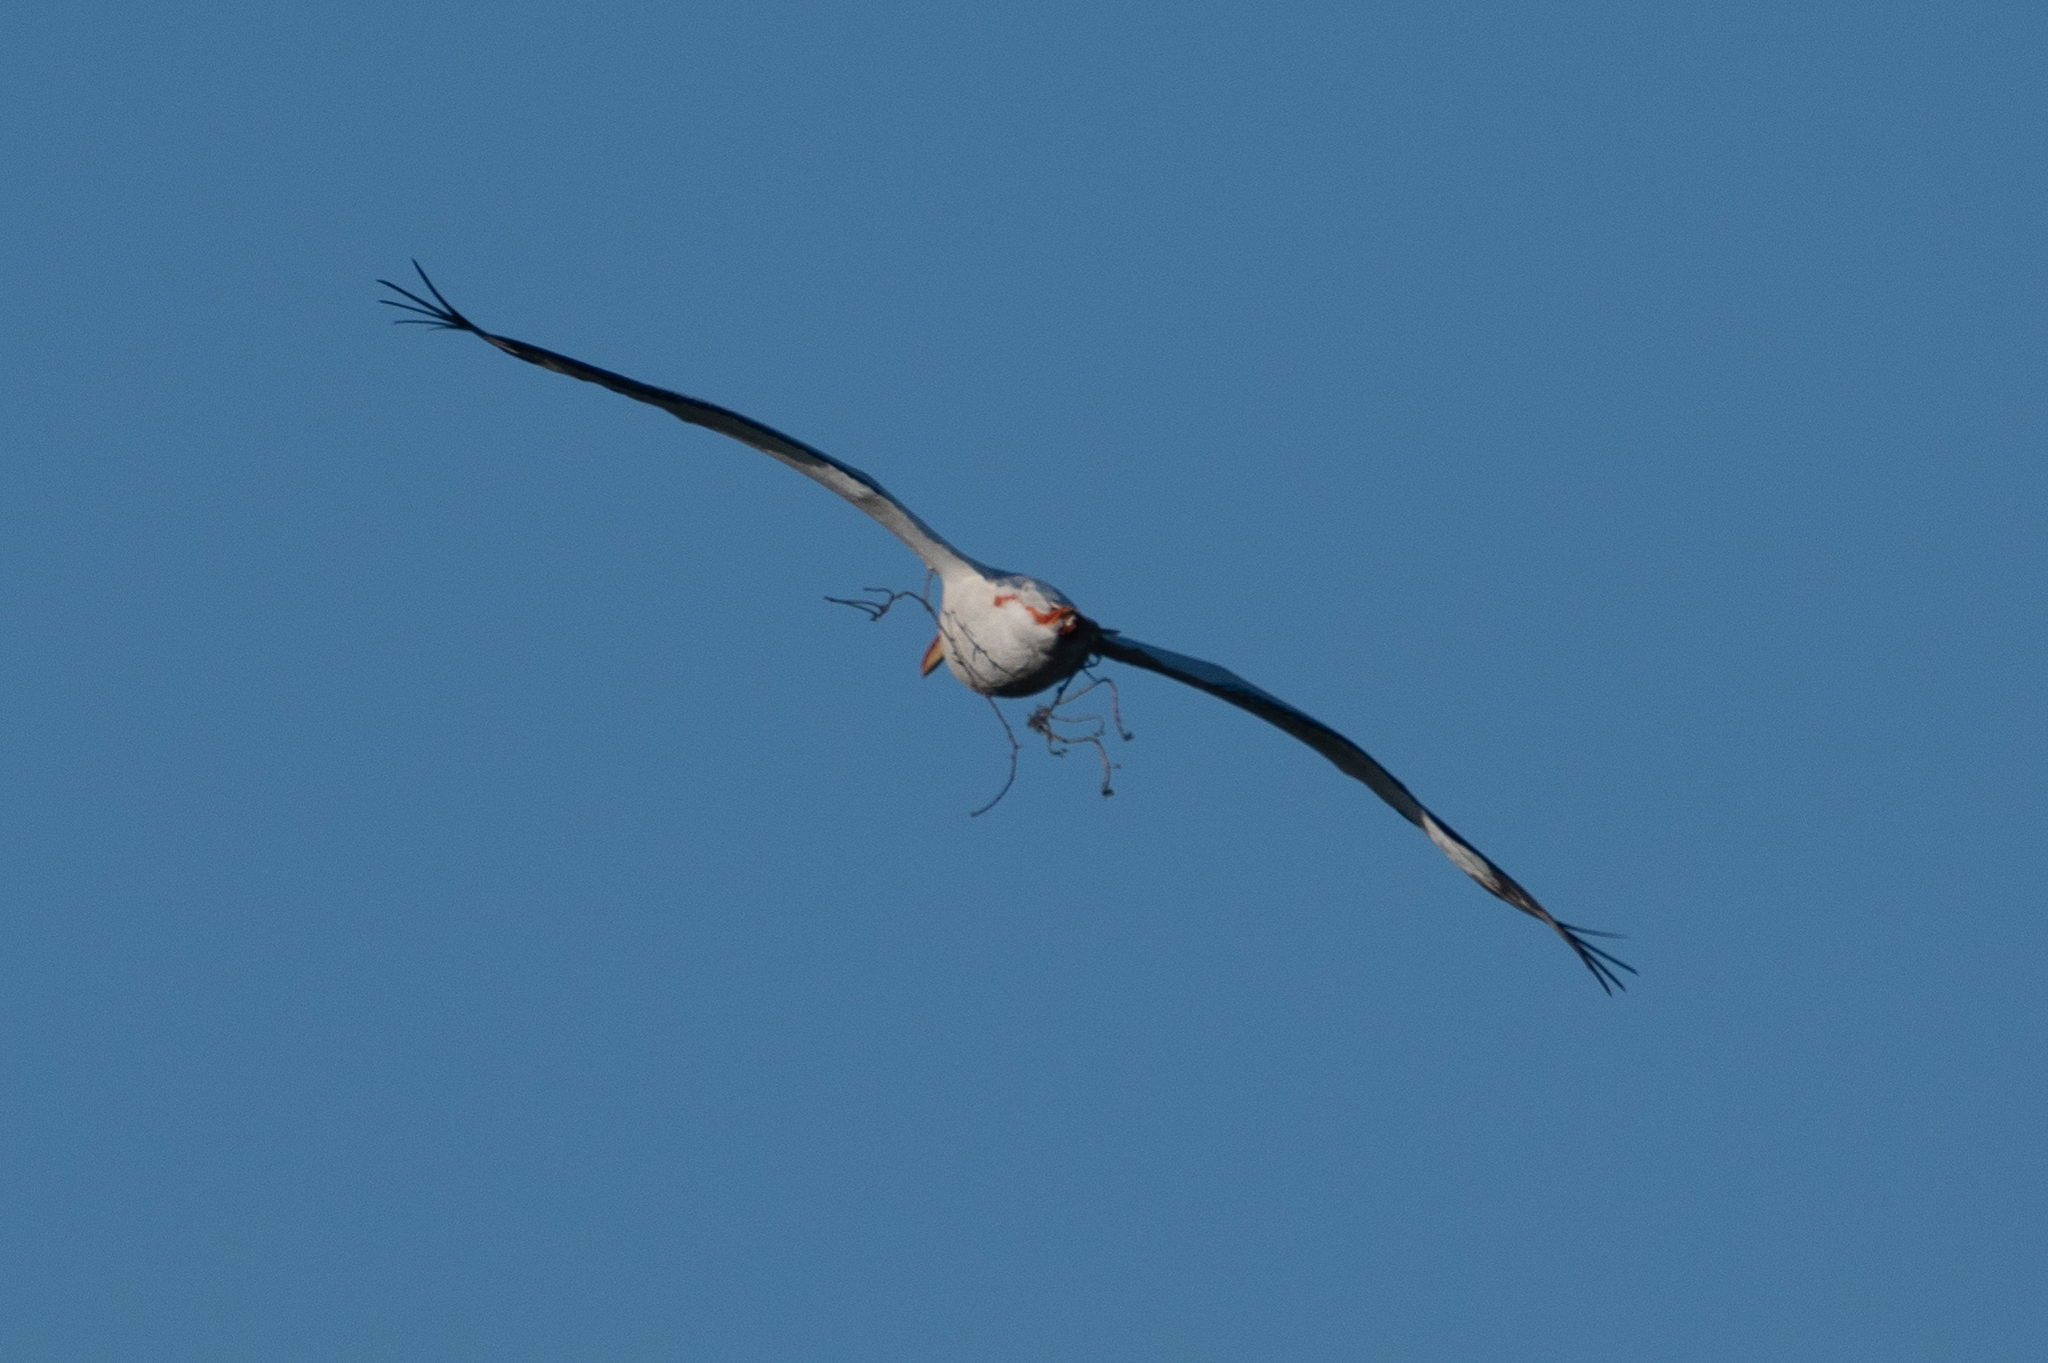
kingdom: Animalia
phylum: Chordata
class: Aves
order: Pelecaniformes
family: Pelecanidae
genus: Pelecanus
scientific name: Pelecanus erythrorhynchos
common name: American white pelican
